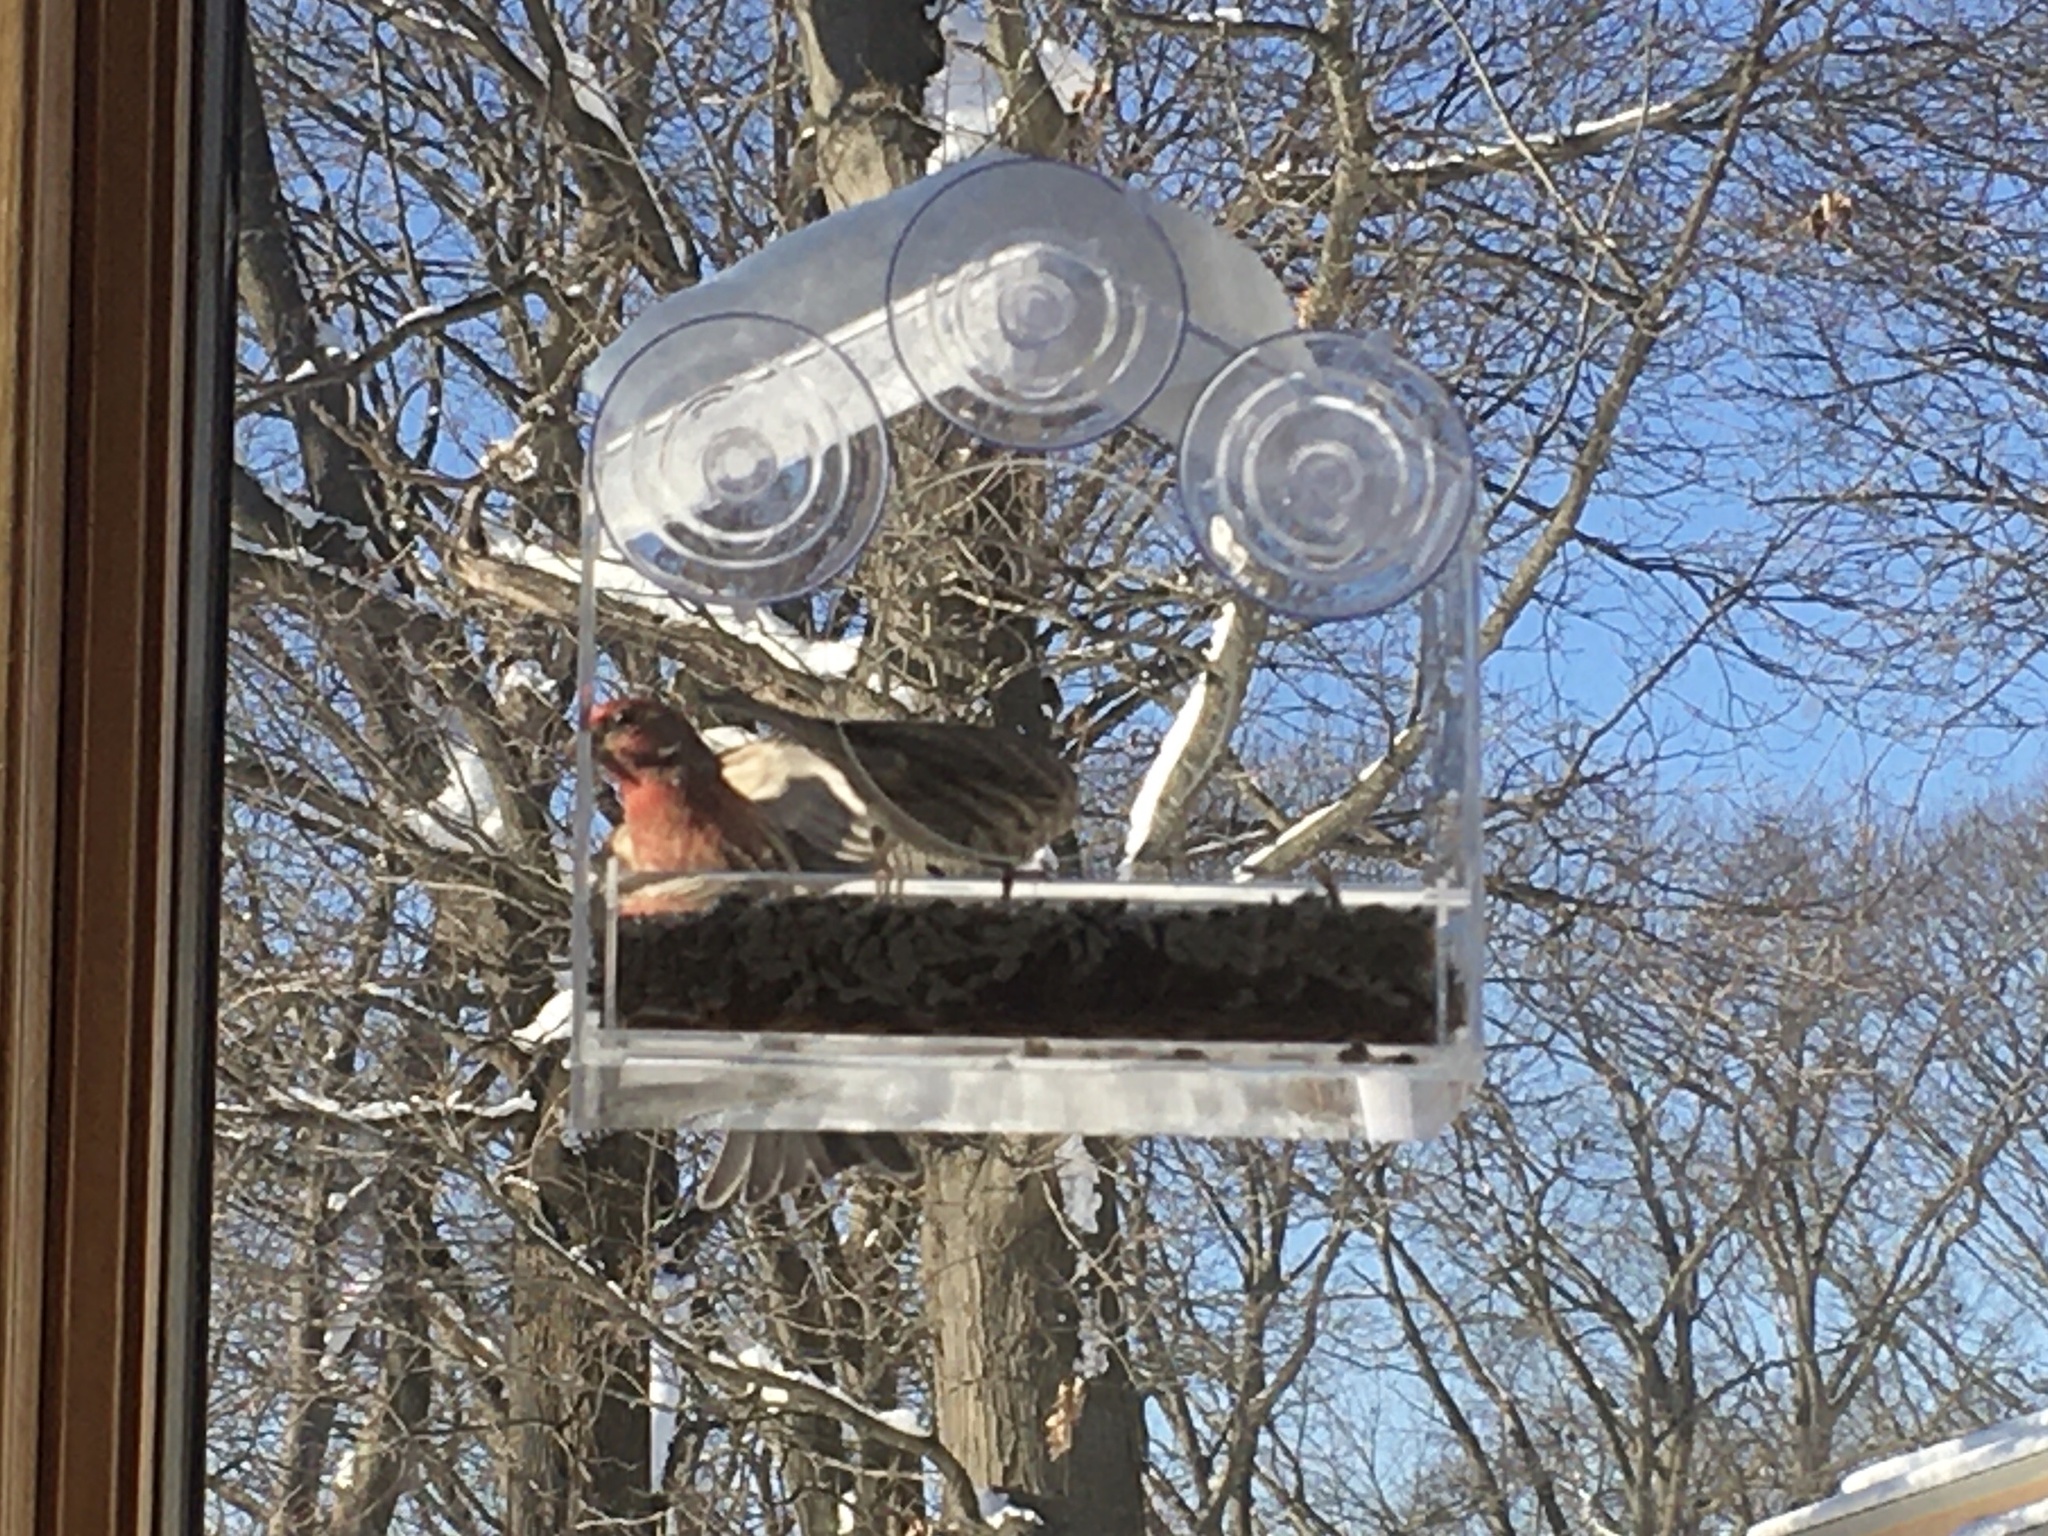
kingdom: Animalia
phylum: Chordata
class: Aves
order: Passeriformes
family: Fringillidae
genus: Haemorhous
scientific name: Haemorhous mexicanus
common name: House finch
